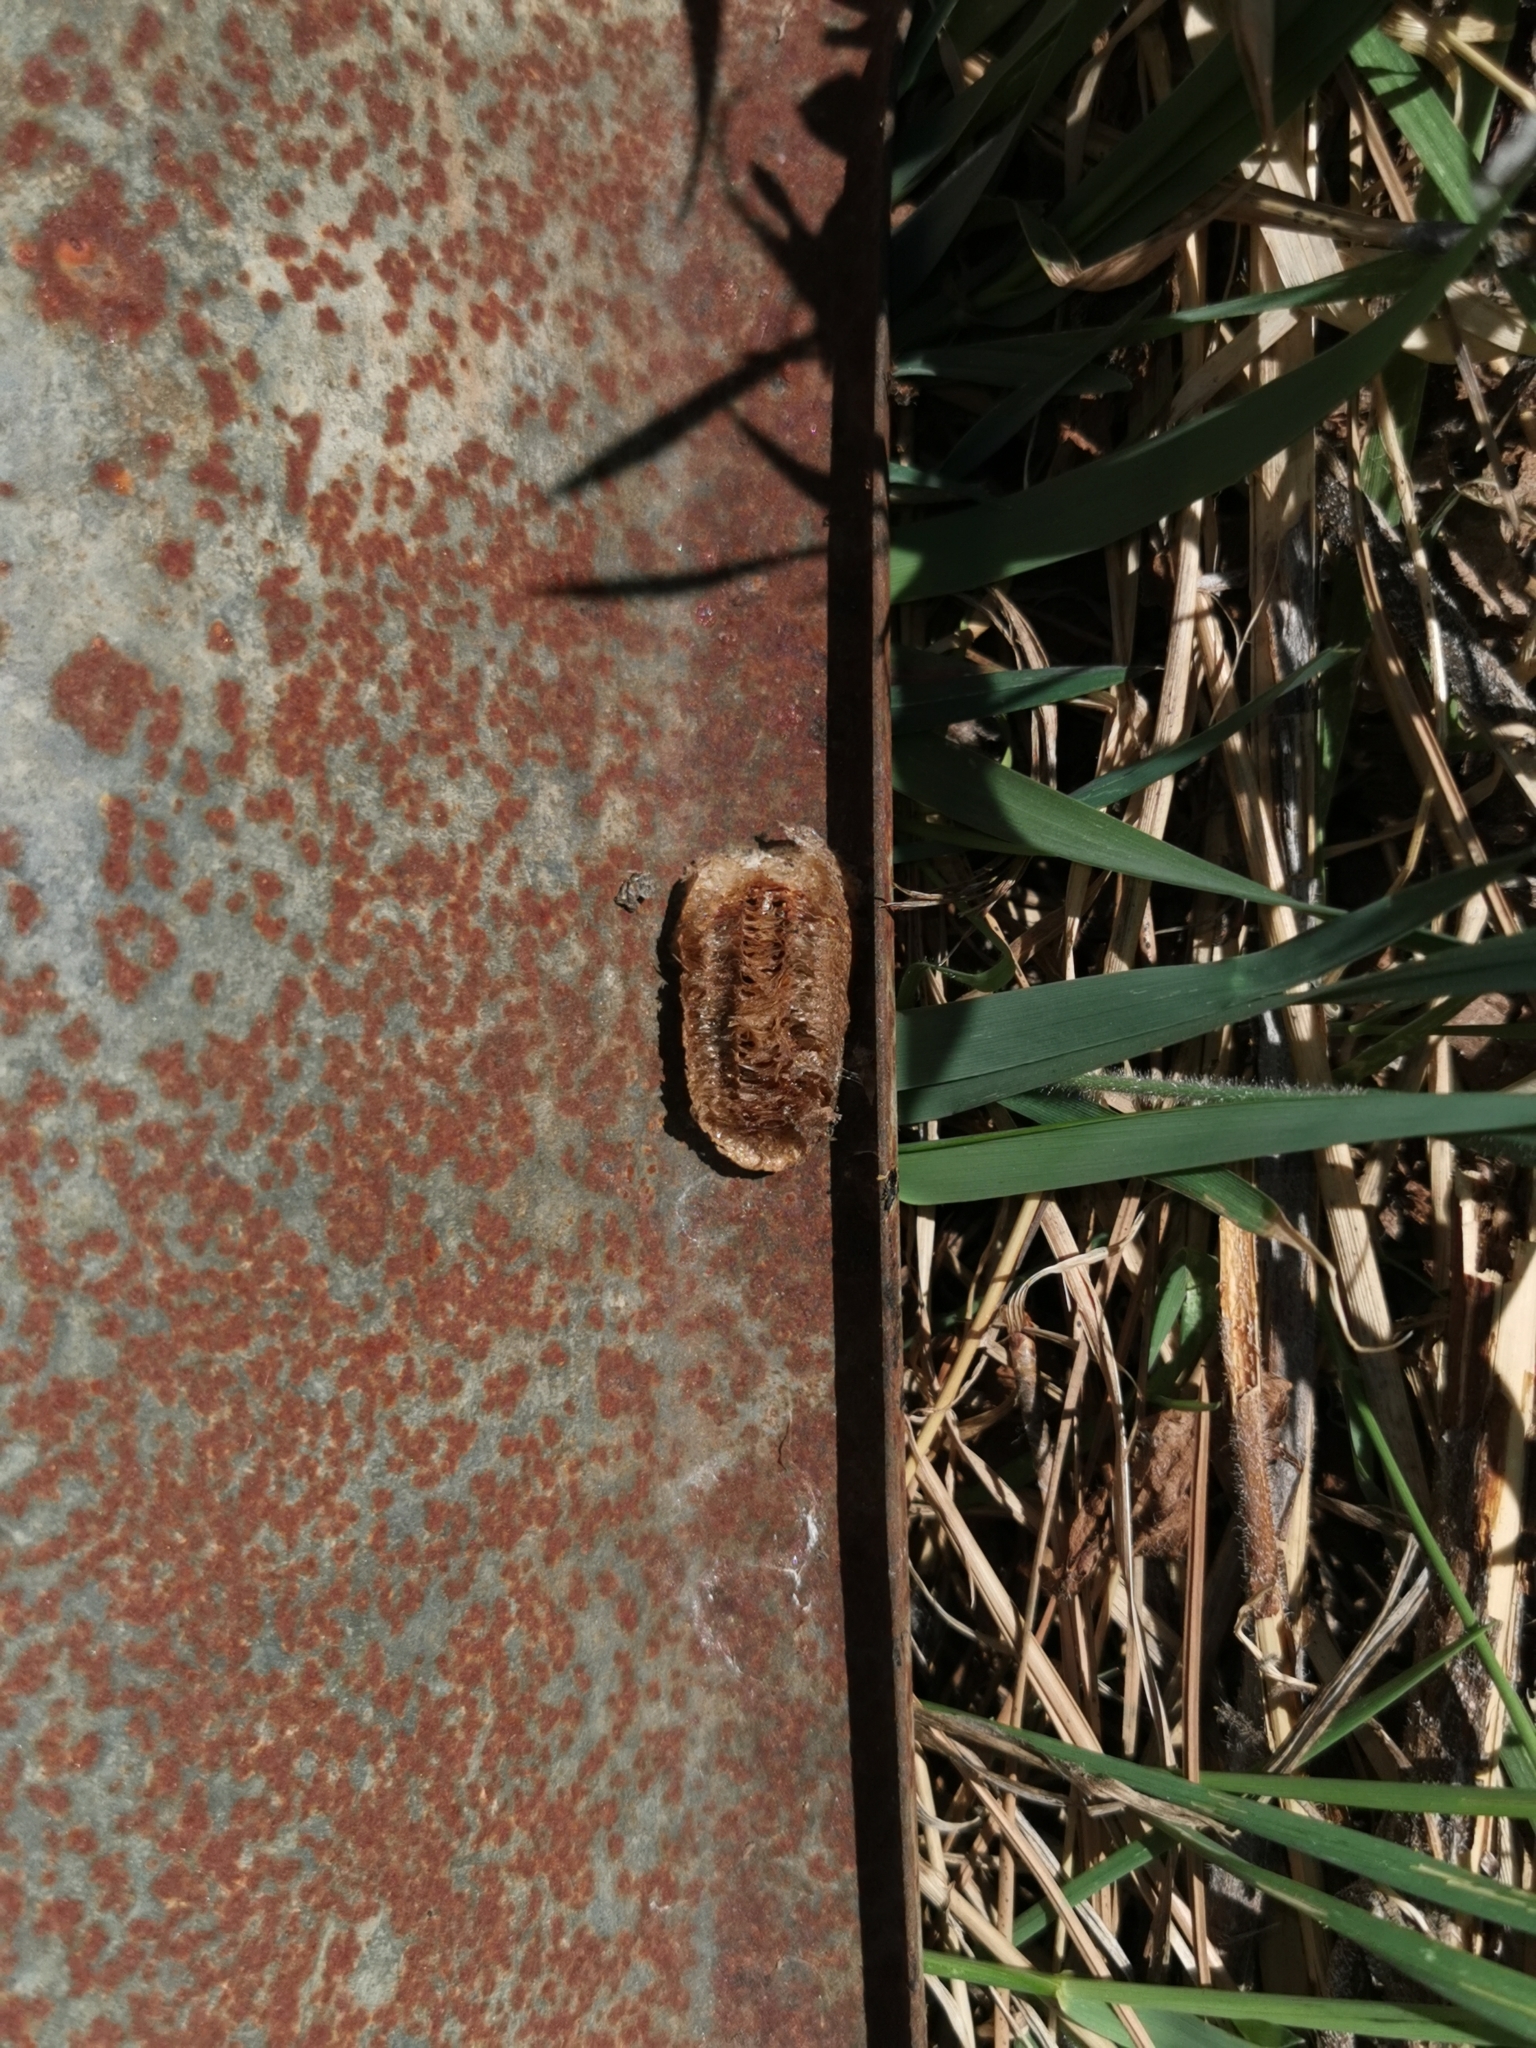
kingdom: Animalia
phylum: Arthropoda
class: Insecta
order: Mantodea
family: Mantidae
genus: Mantis
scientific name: Mantis religiosa
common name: Praying mantis
